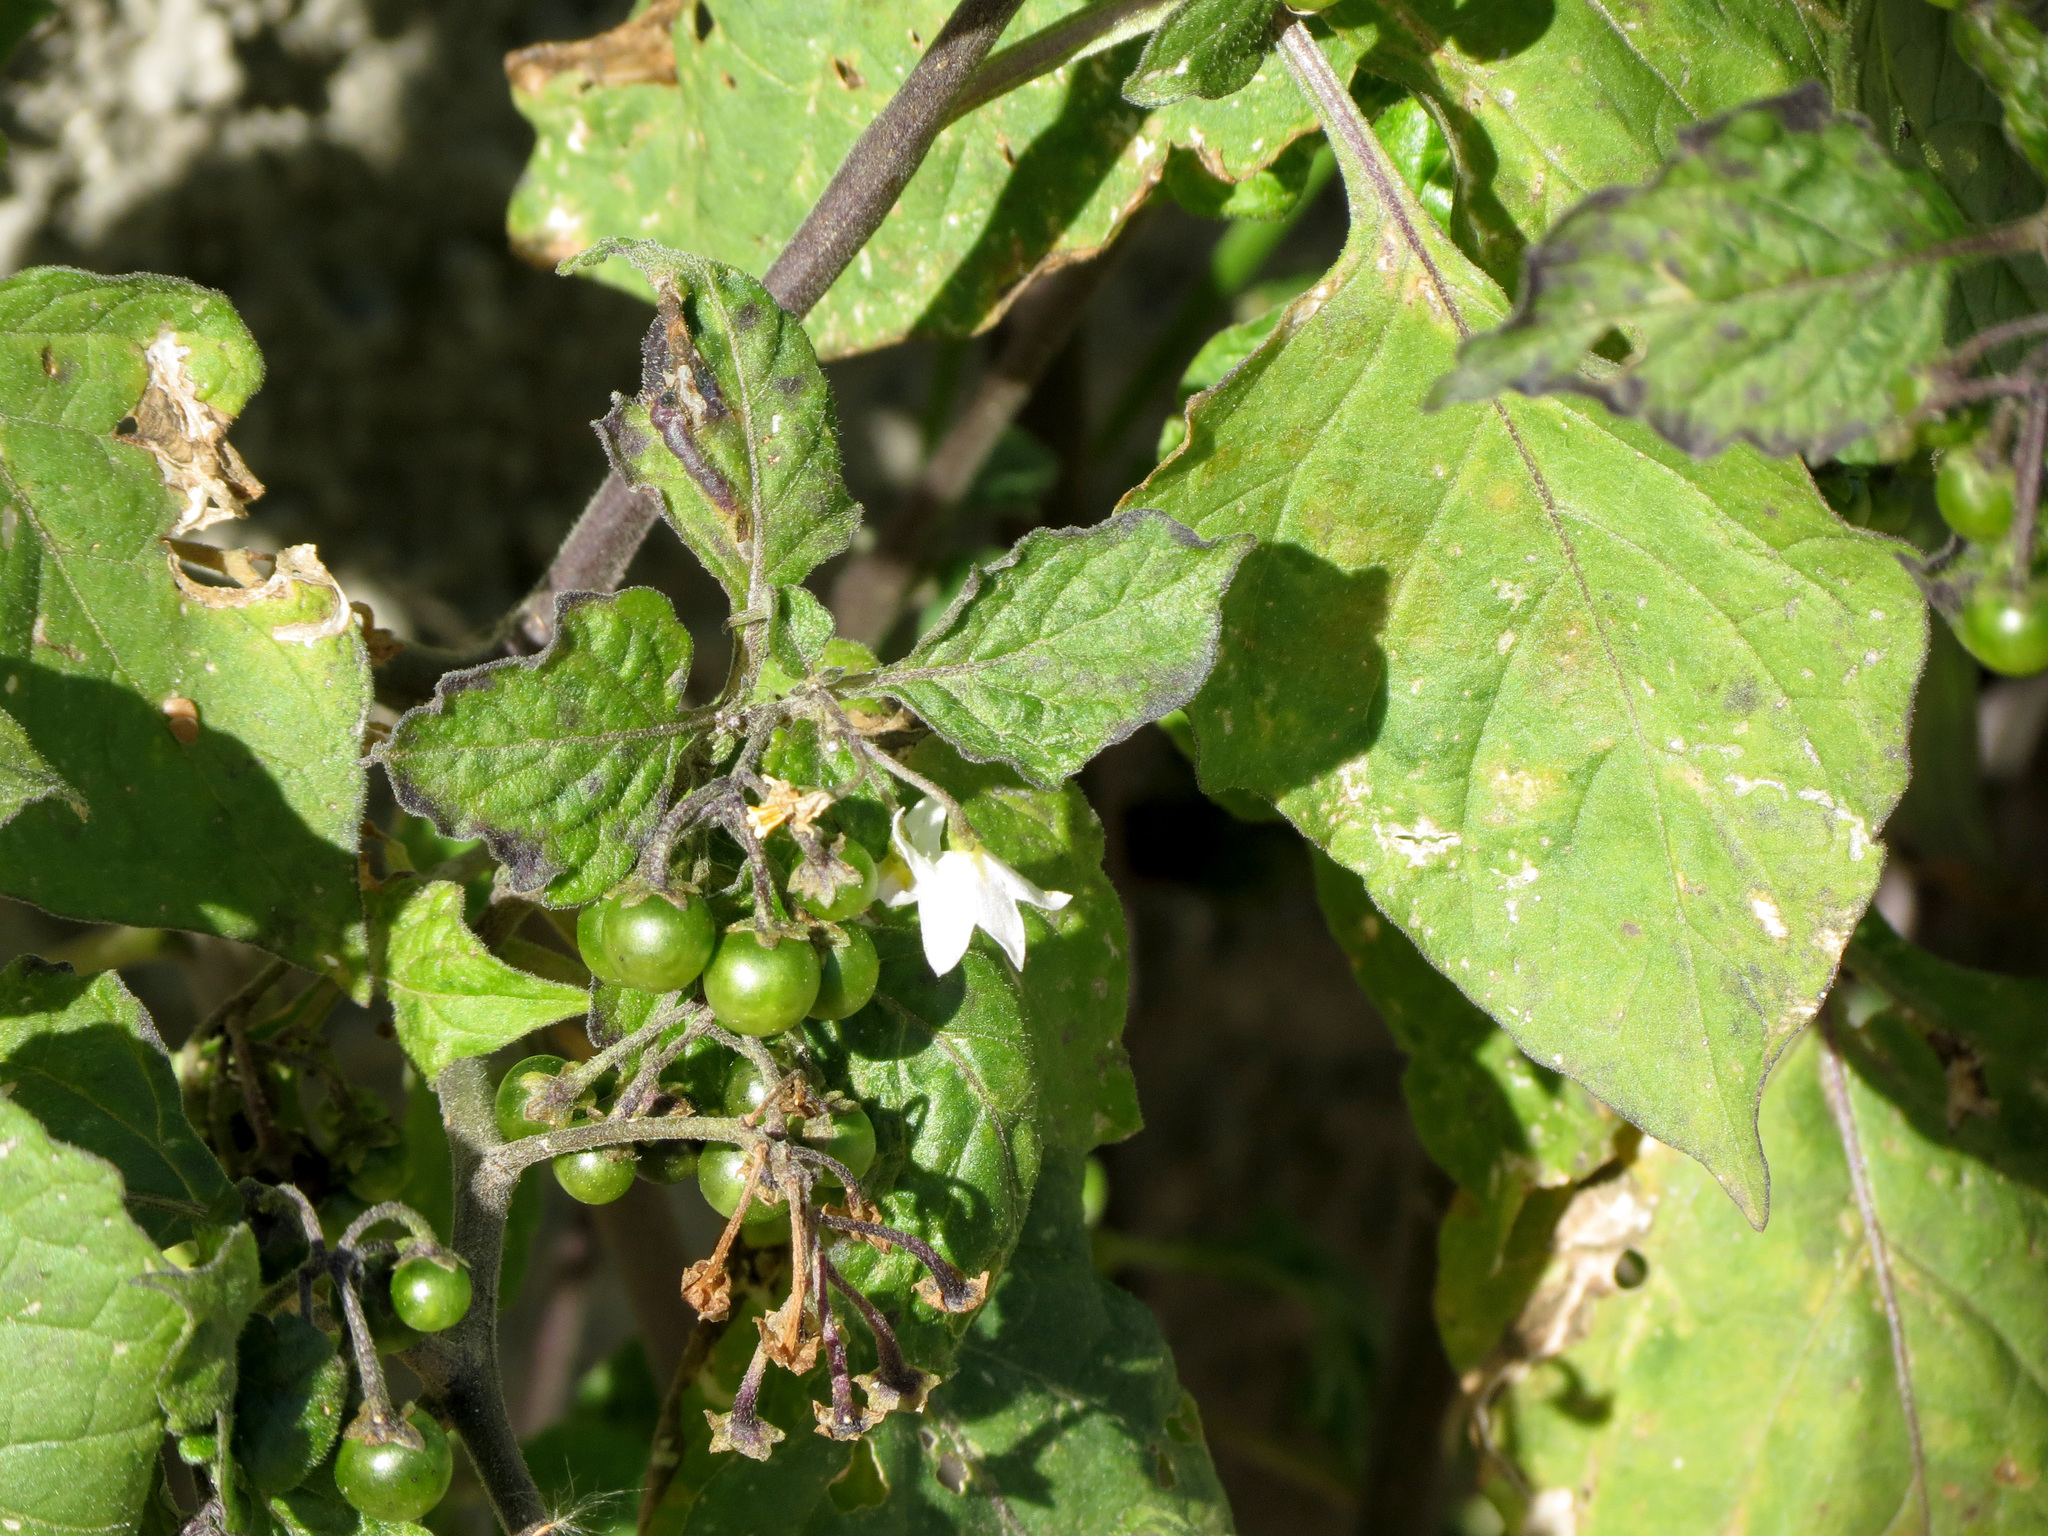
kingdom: Plantae
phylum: Tracheophyta
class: Magnoliopsida
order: Solanales
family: Solanaceae
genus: Solanum
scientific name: Solanum nigrum
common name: Black nightshade
